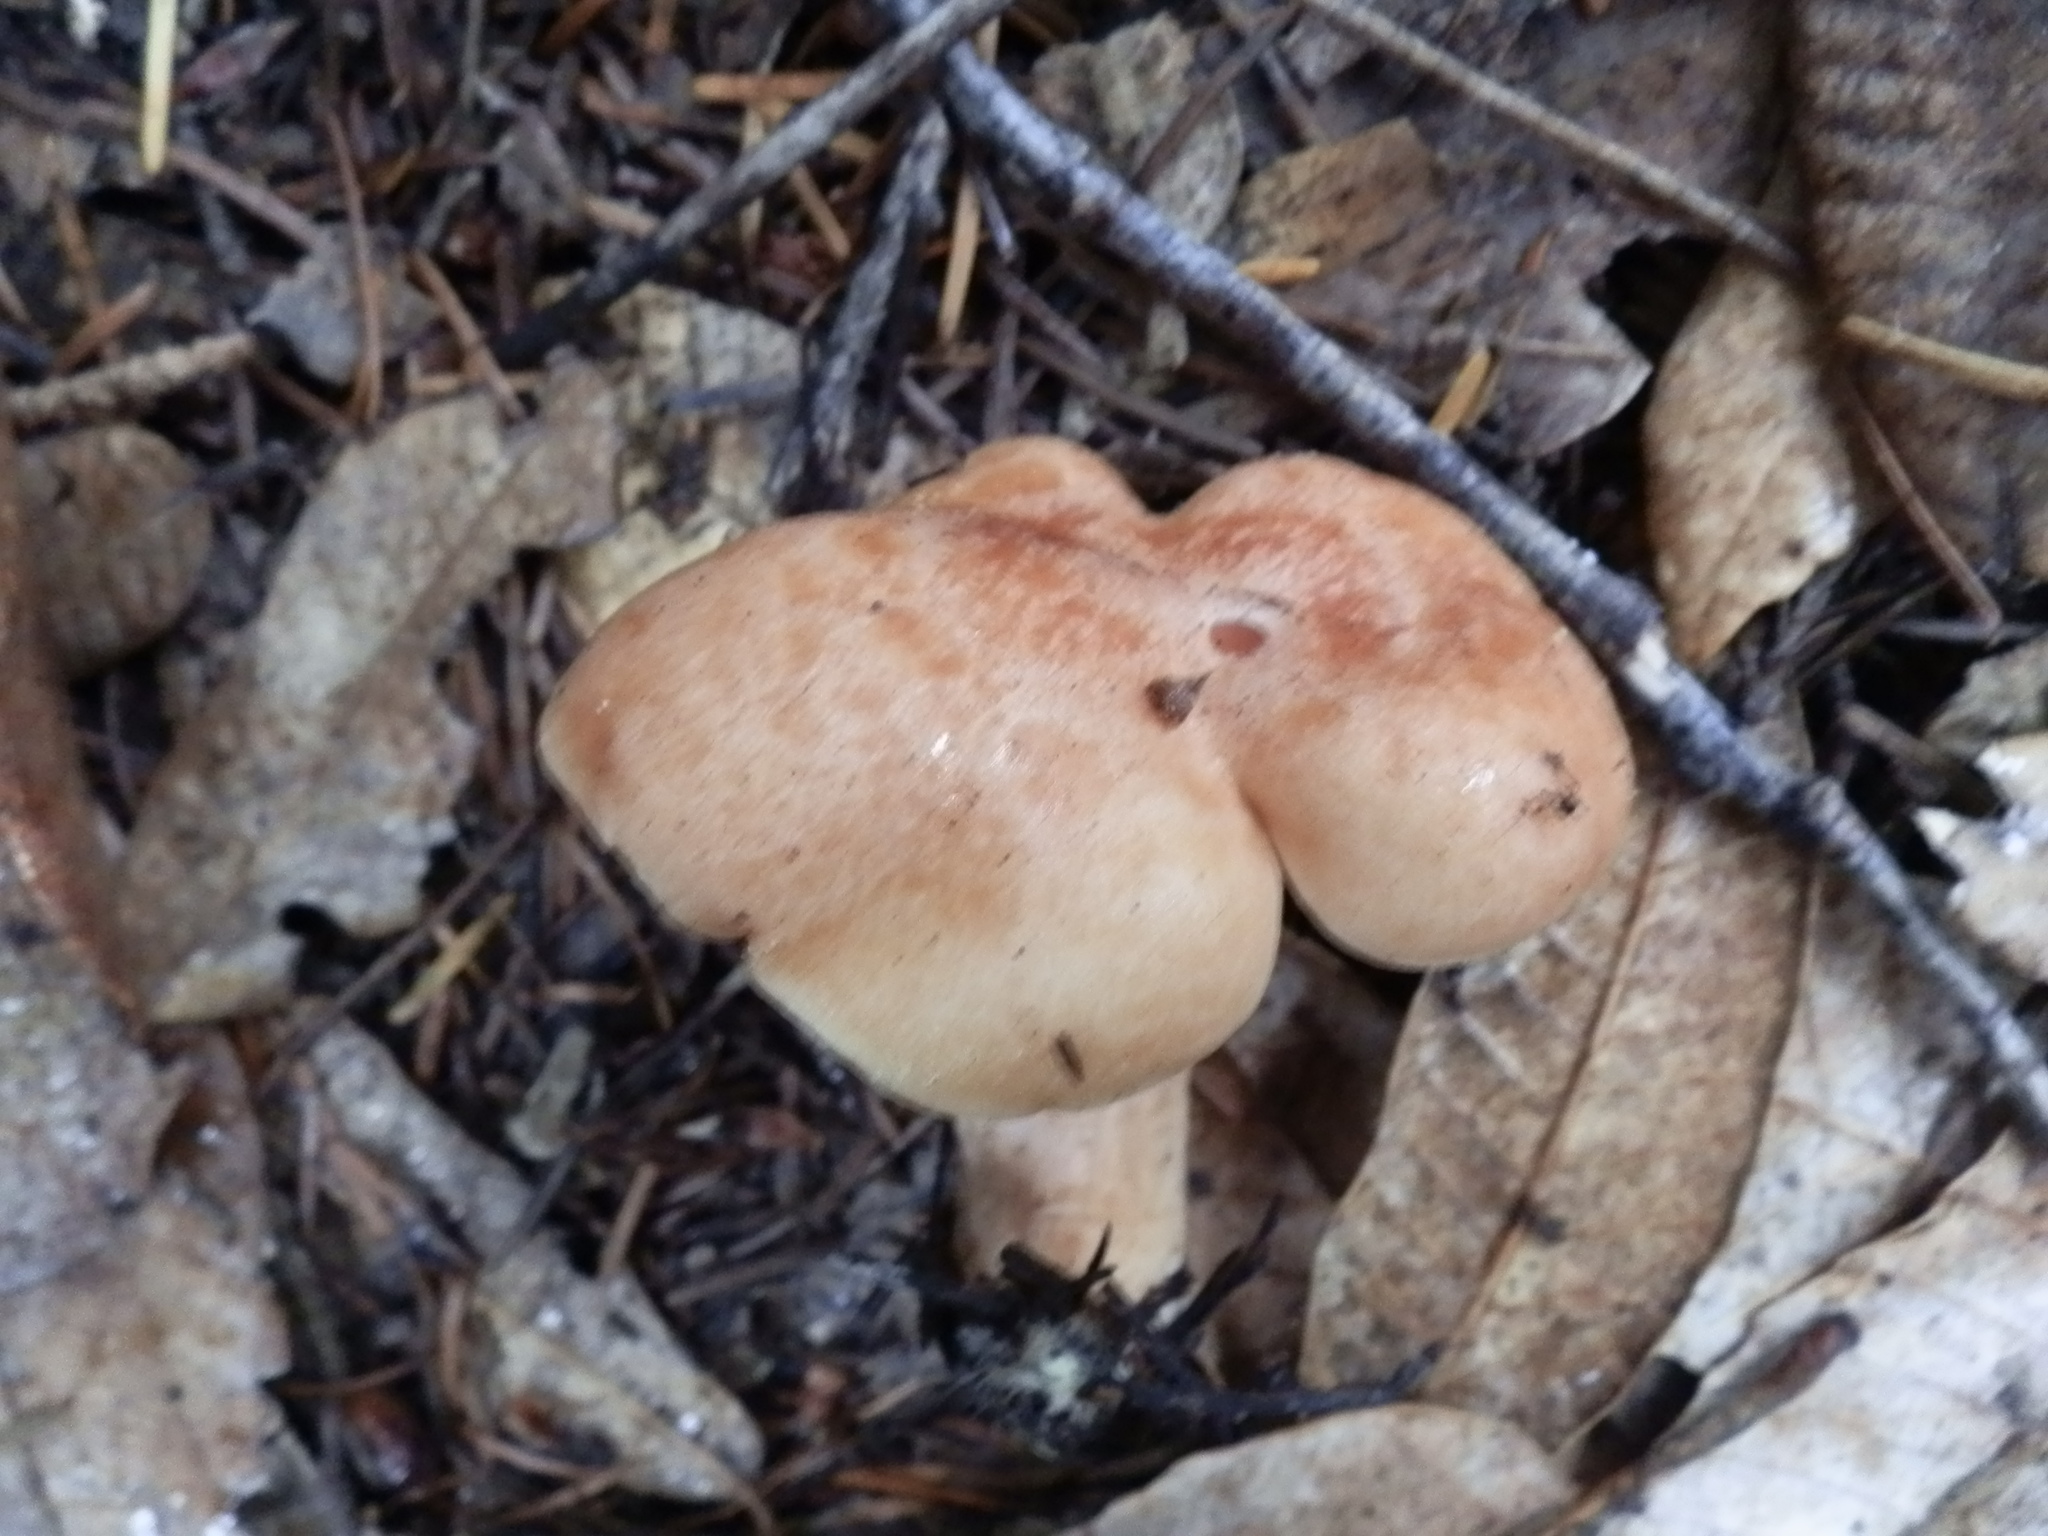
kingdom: Fungi
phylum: Basidiomycota
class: Agaricomycetes
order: Russulales
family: Russulaceae
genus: Lactarius
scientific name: Lactarius xanthogalactus
